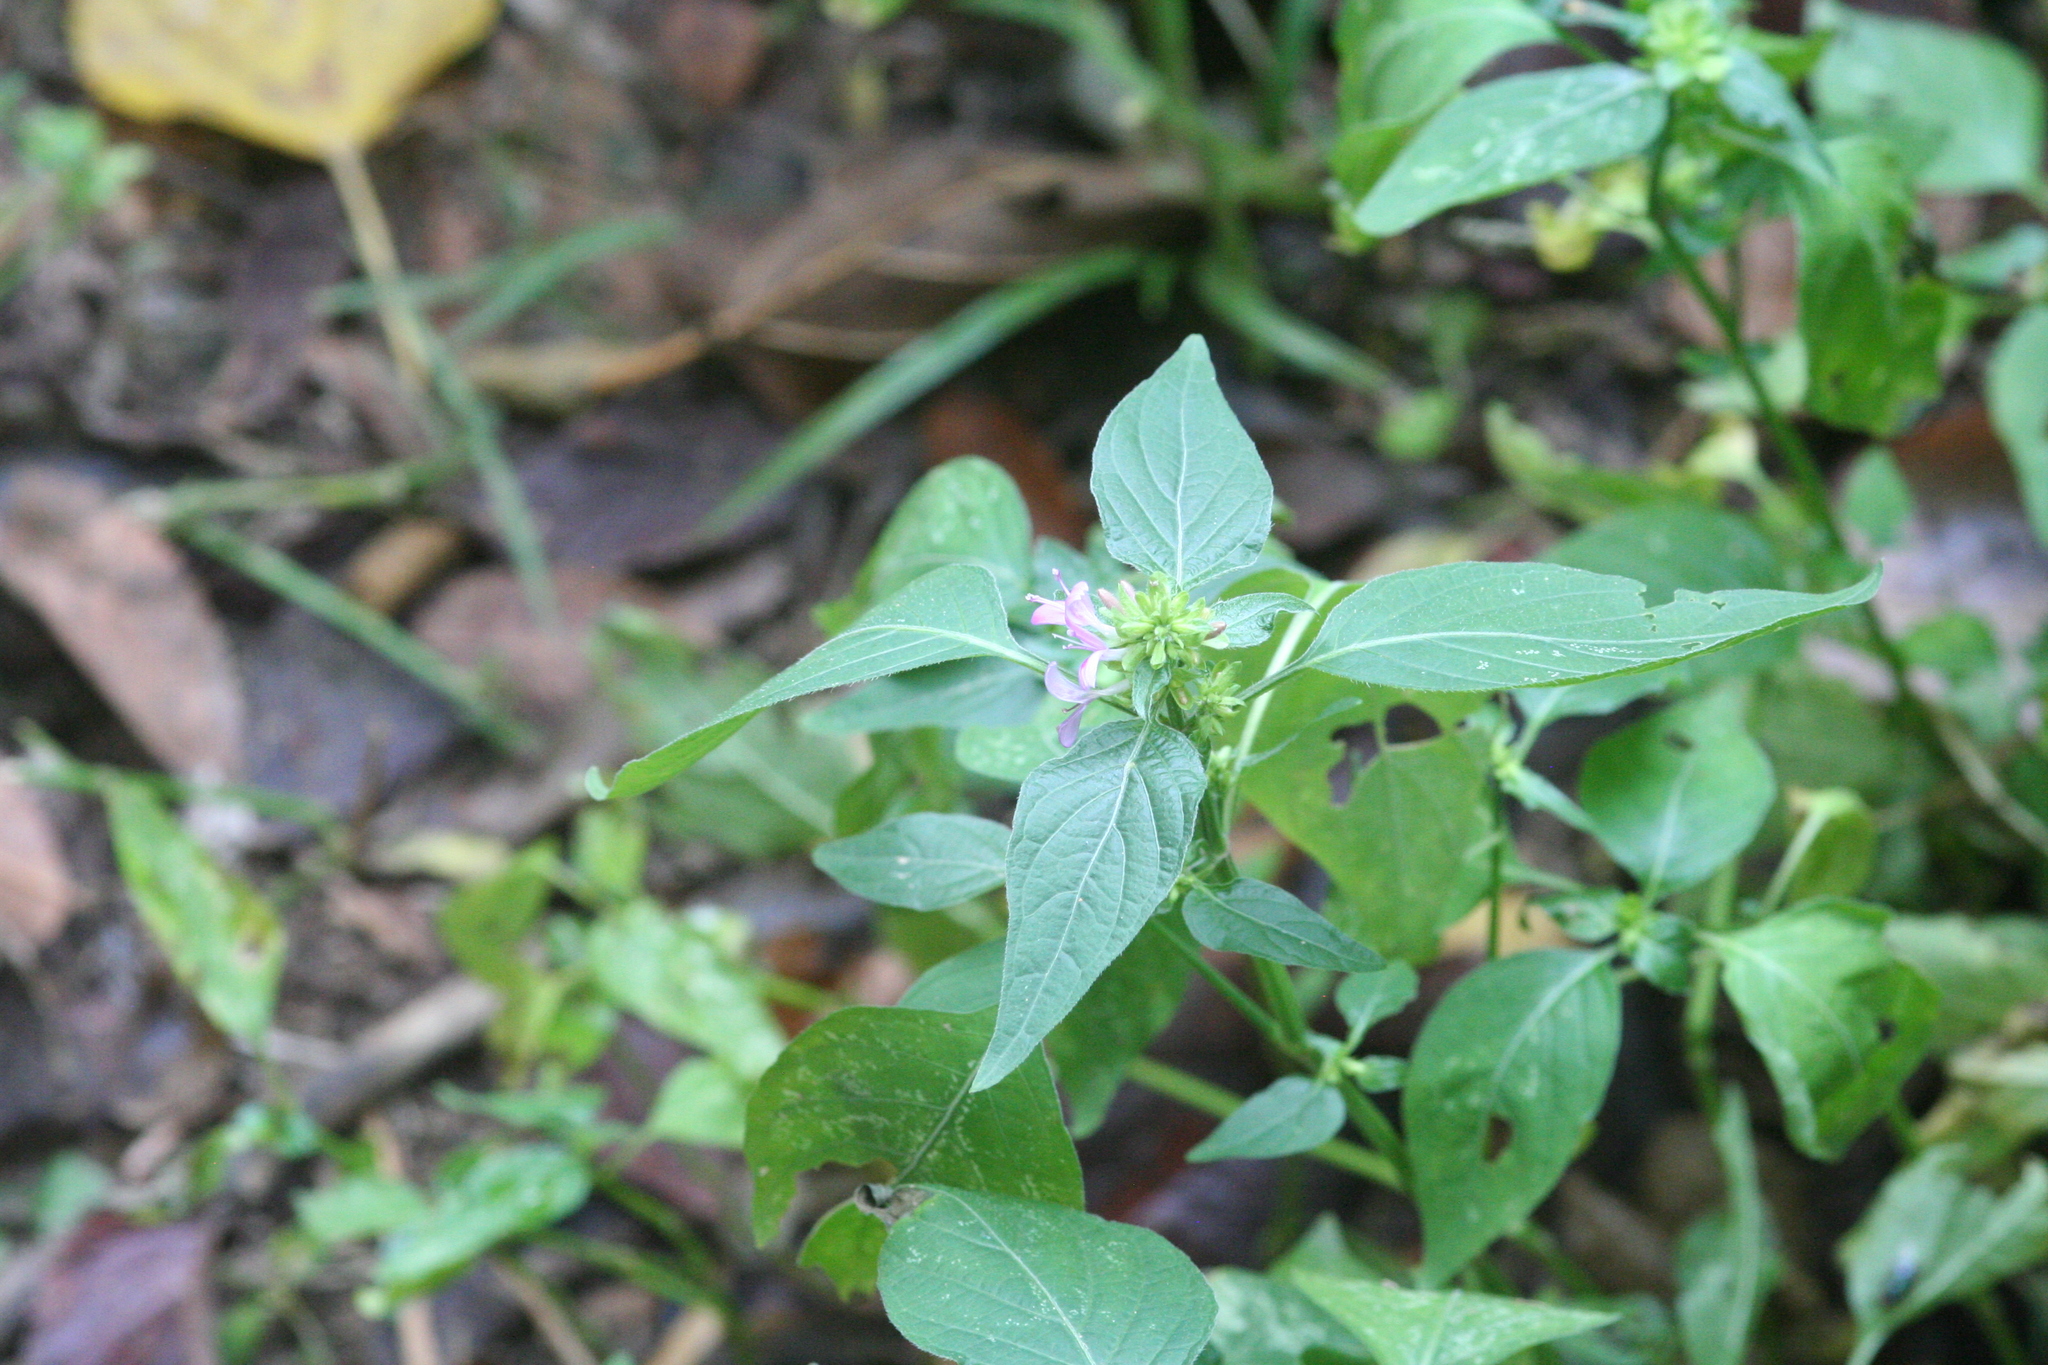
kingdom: Plantae
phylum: Tracheophyta
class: Magnoliopsida
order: Lamiales
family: Acanthaceae
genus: Dicliptera
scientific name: Dicliptera brachiata
